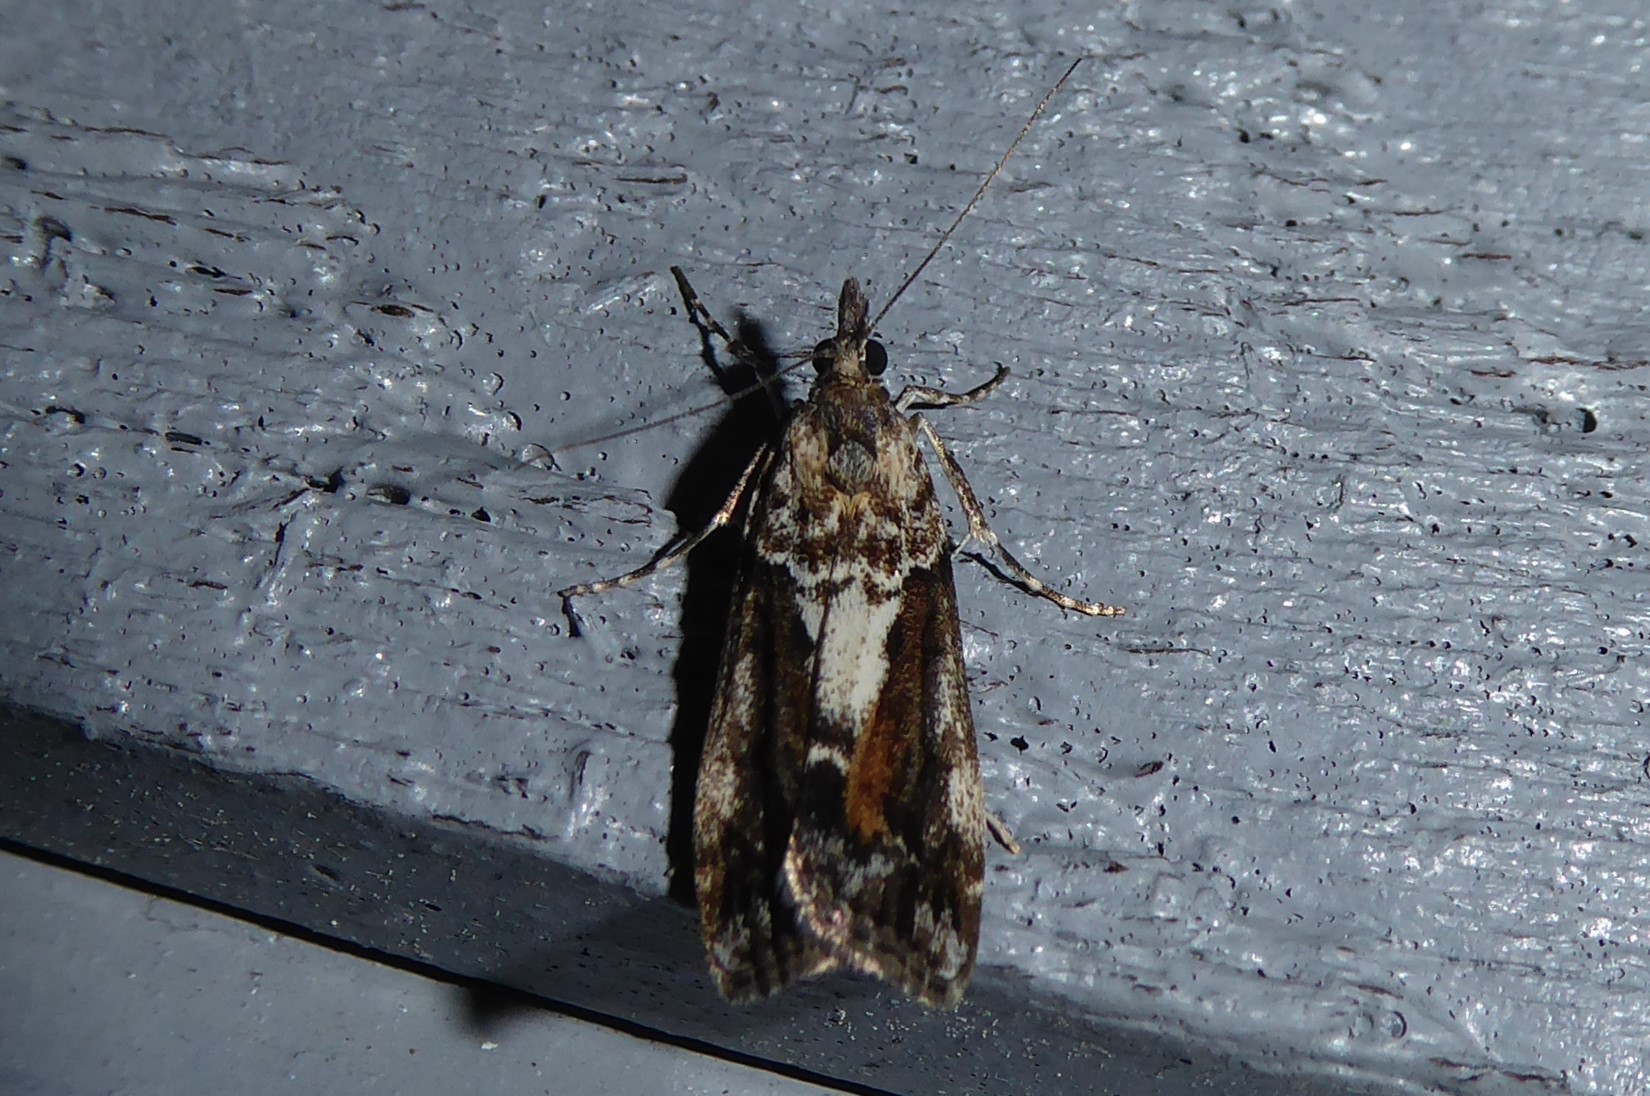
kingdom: Animalia
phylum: Arthropoda
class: Insecta
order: Lepidoptera
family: Crambidae
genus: Eudonia
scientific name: Eudonia submarginalis
